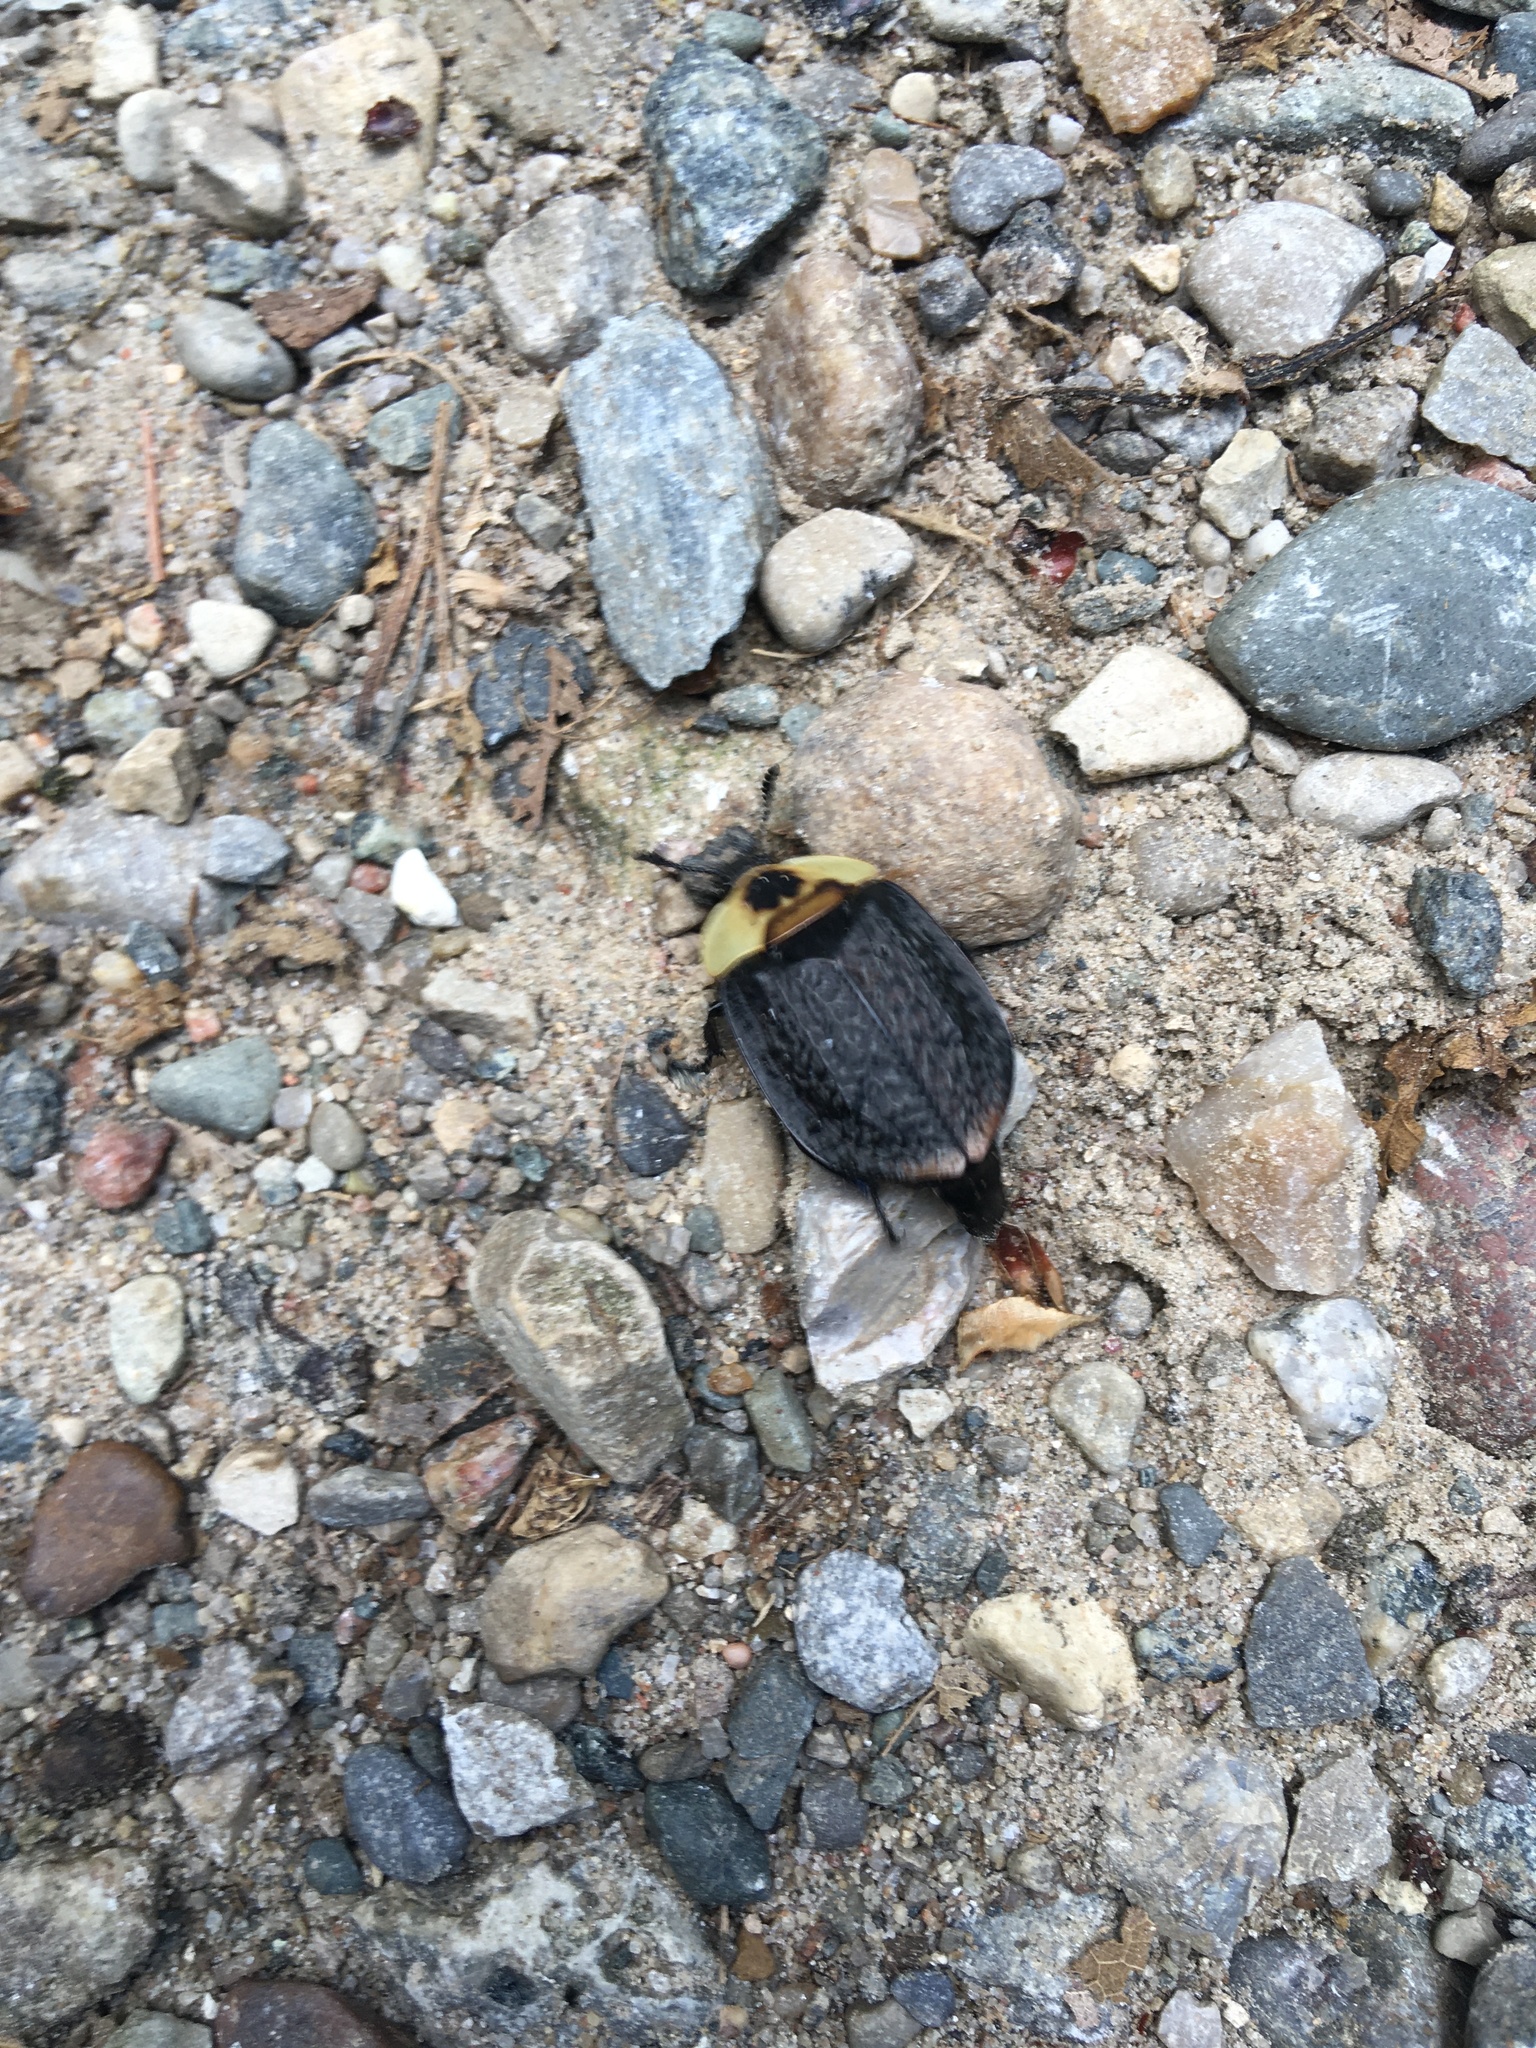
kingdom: Animalia
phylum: Arthropoda
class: Insecta
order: Coleoptera
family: Staphylinidae
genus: Necrophila
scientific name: Necrophila americana
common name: American carrion beetle
